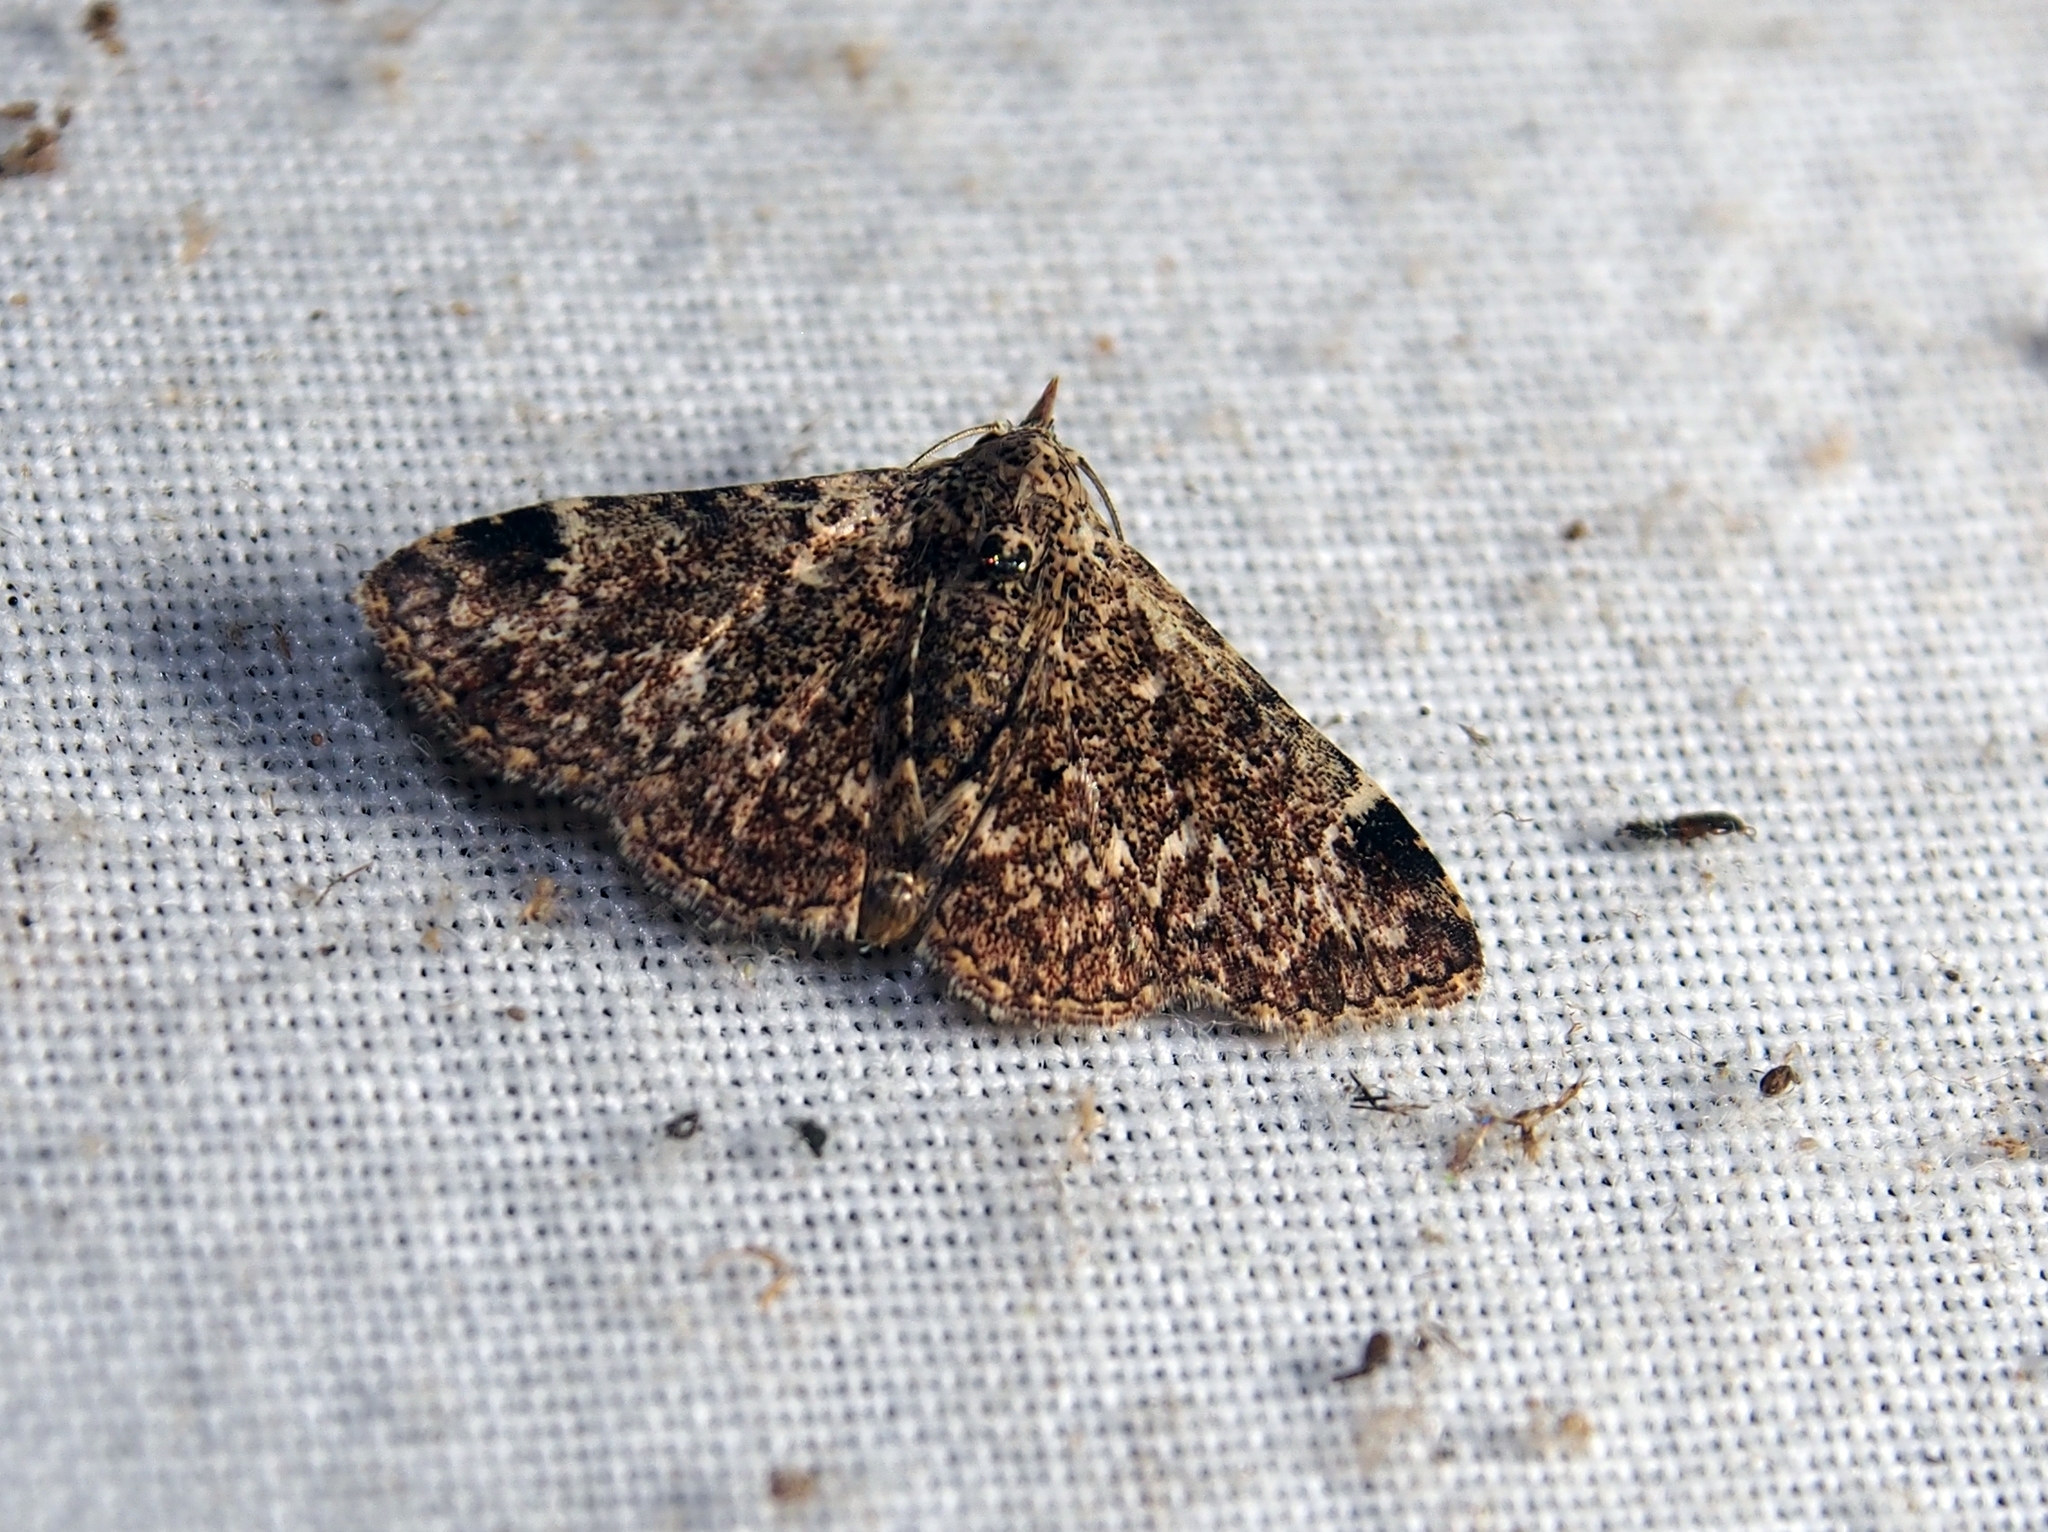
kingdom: Animalia
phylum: Arthropoda
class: Insecta
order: Lepidoptera
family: Erebidae
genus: Metalectra
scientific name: Metalectra paralappa
